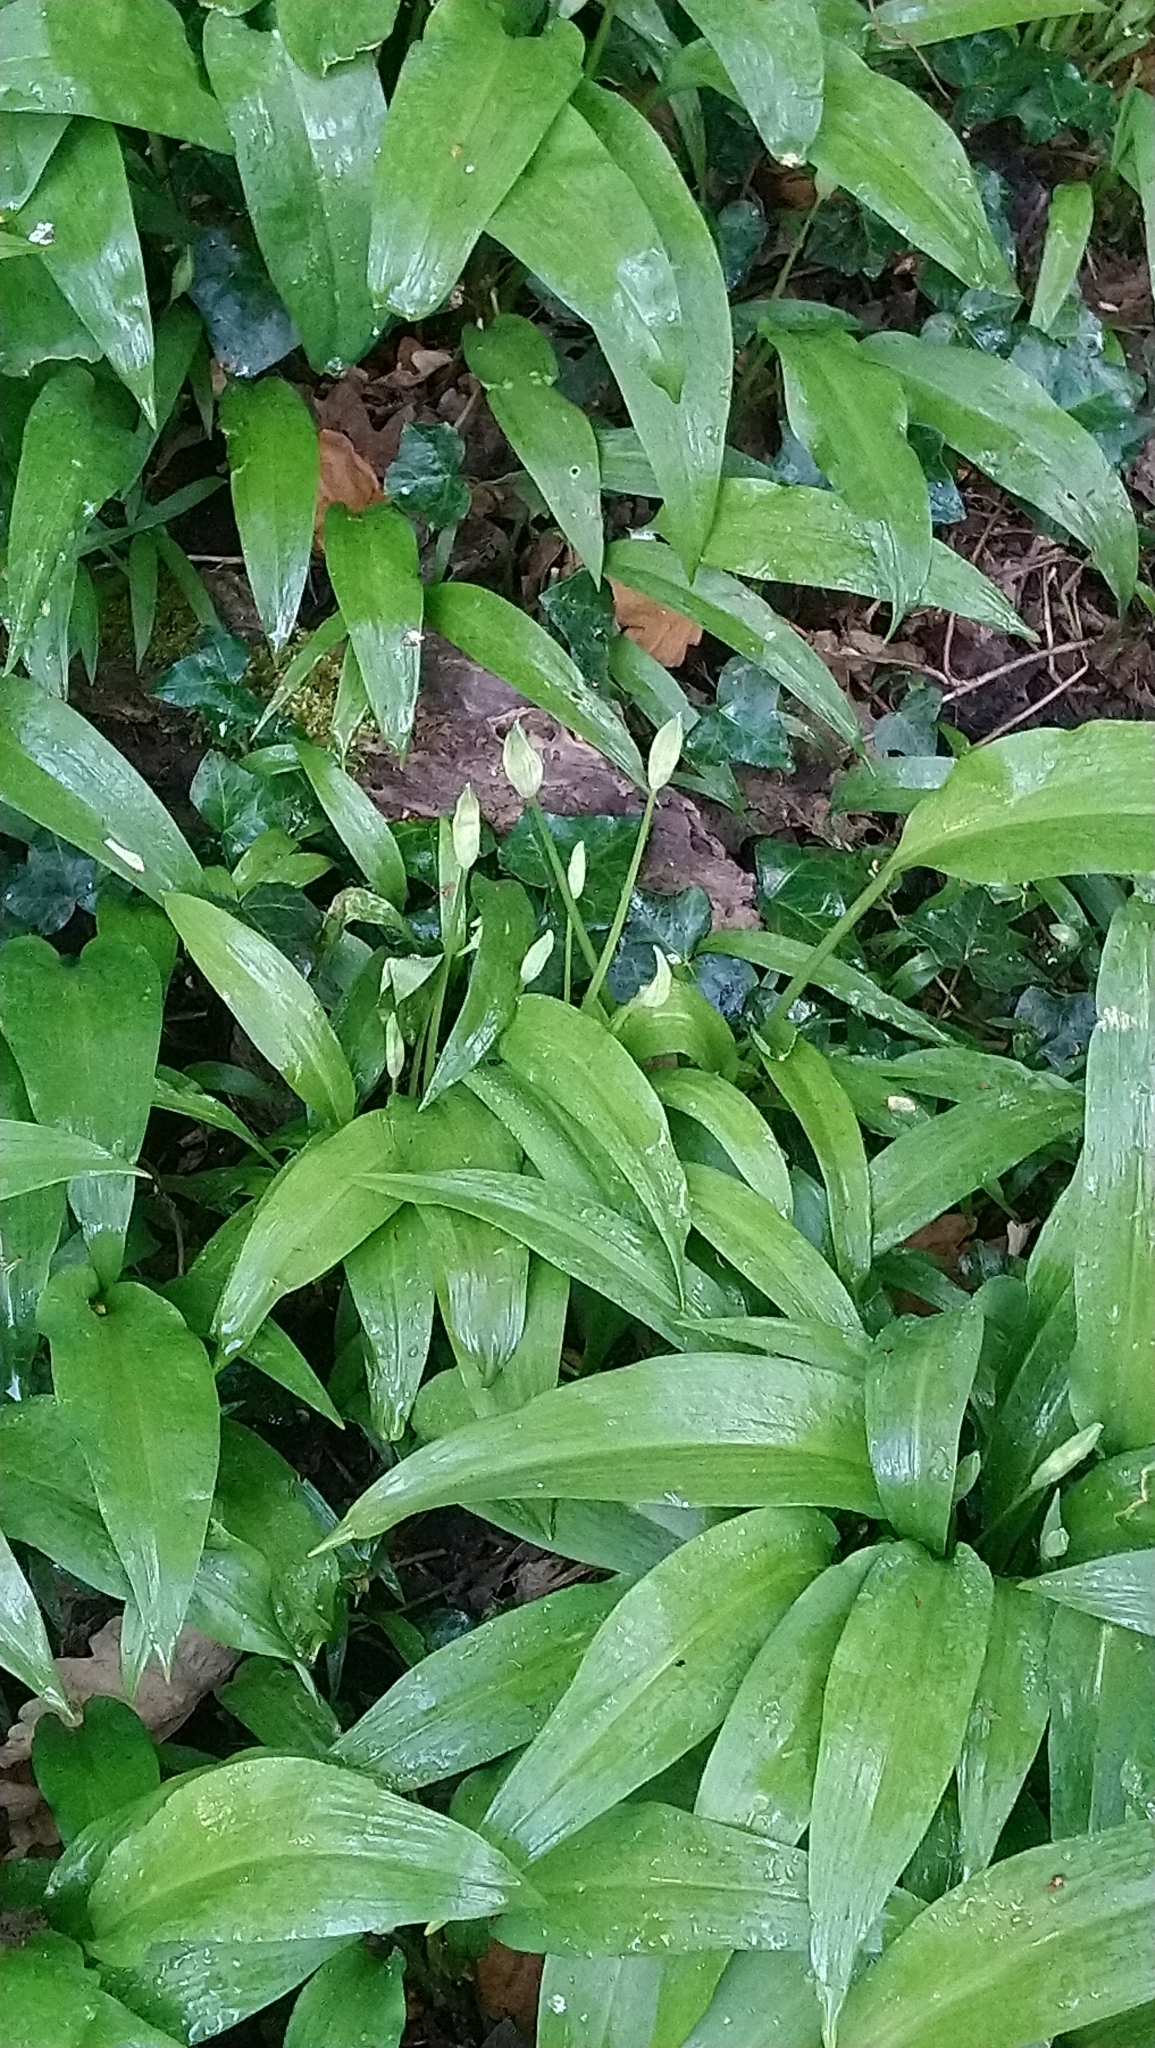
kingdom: Plantae
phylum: Tracheophyta
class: Liliopsida
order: Asparagales
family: Amaryllidaceae
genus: Allium
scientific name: Allium ursinum
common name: Ramsons
